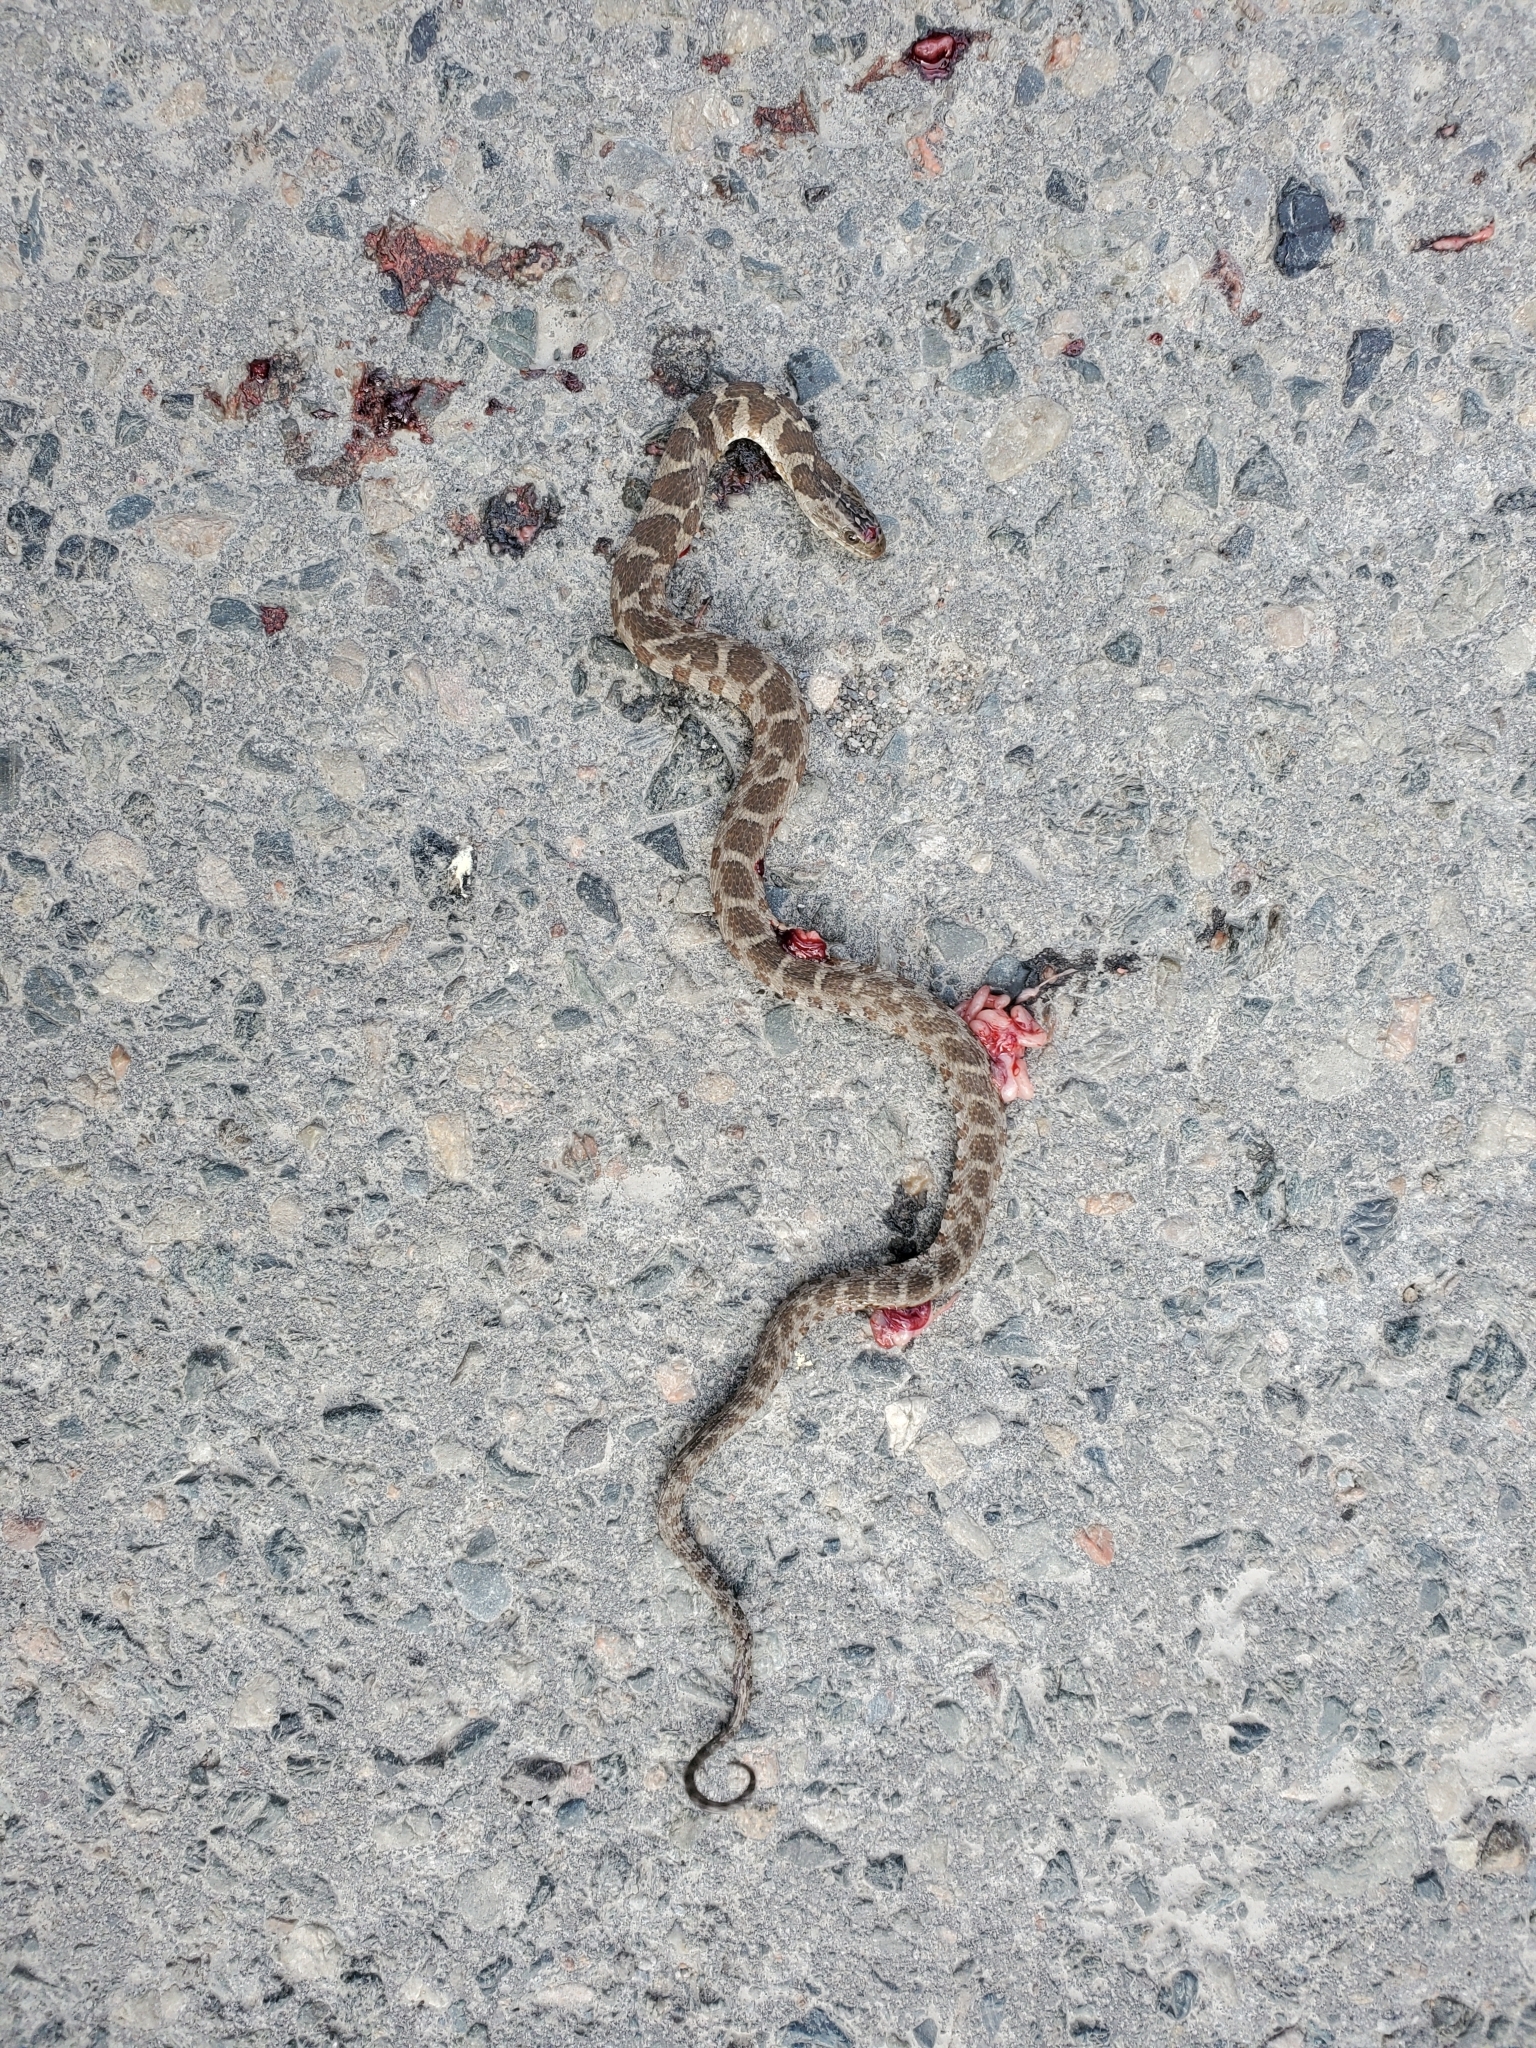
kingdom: Animalia
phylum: Chordata
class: Squamata
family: Colubridae
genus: Nerodia
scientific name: Nerodia sipedon
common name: Northern water snake
